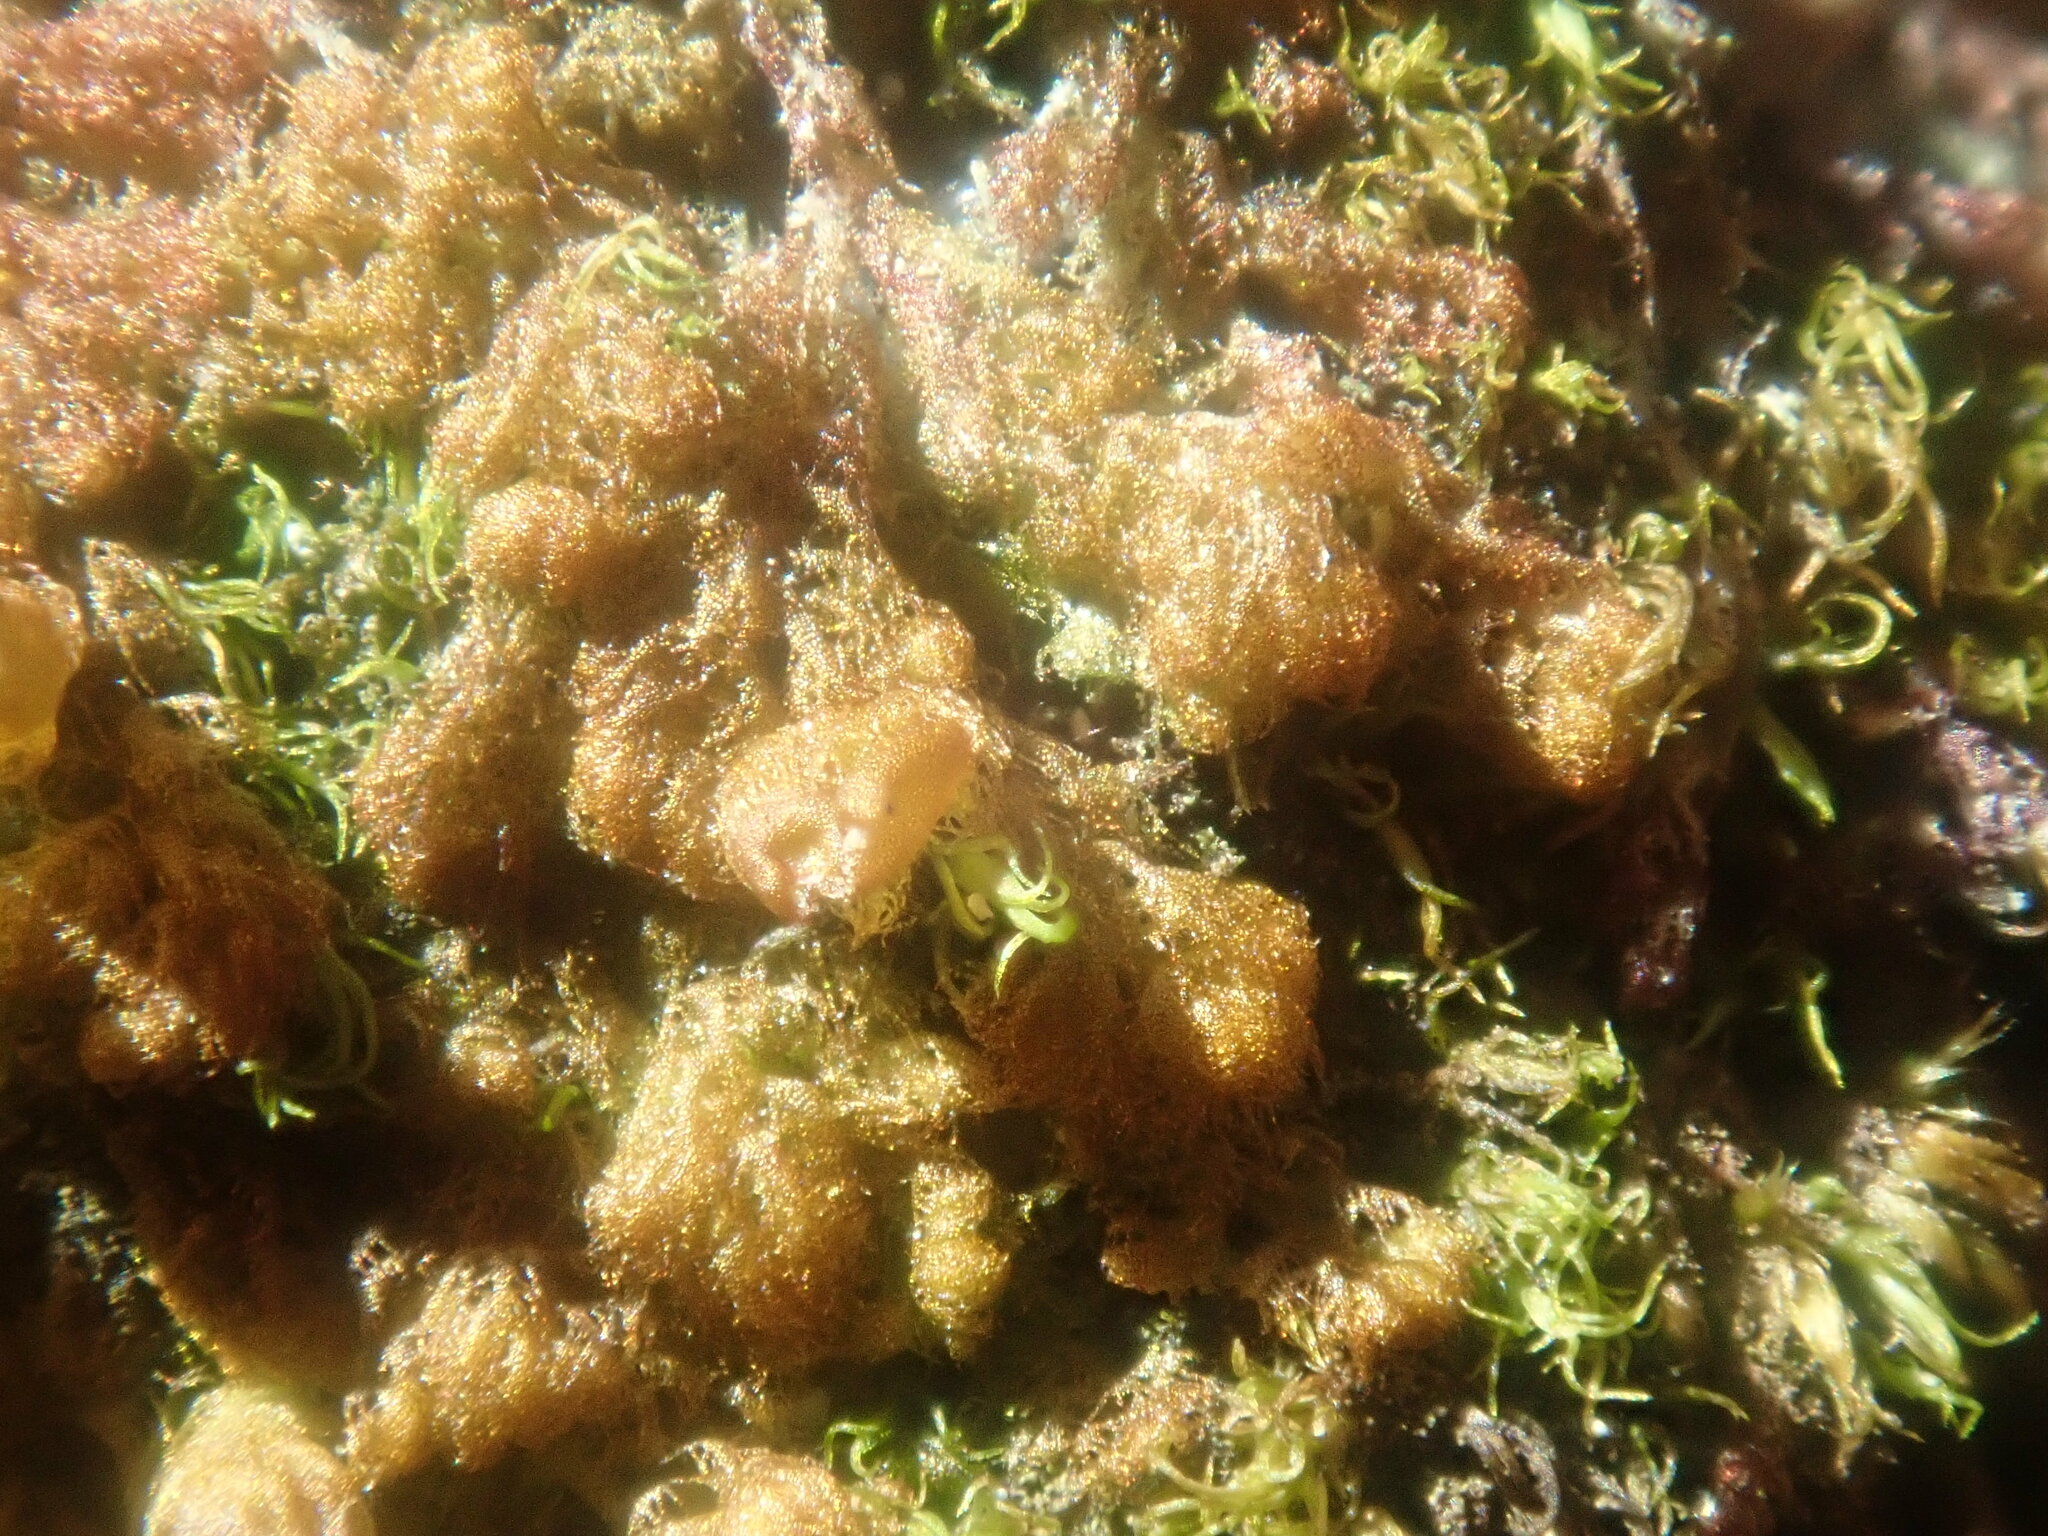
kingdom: Plantae
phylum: Marchantiophyta
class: Jungermanniopsida
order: Ptilidiales
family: Ptilidiaceae
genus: Ptilidium
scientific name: Ptilidium pulcherrimum
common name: Tree fringewort
